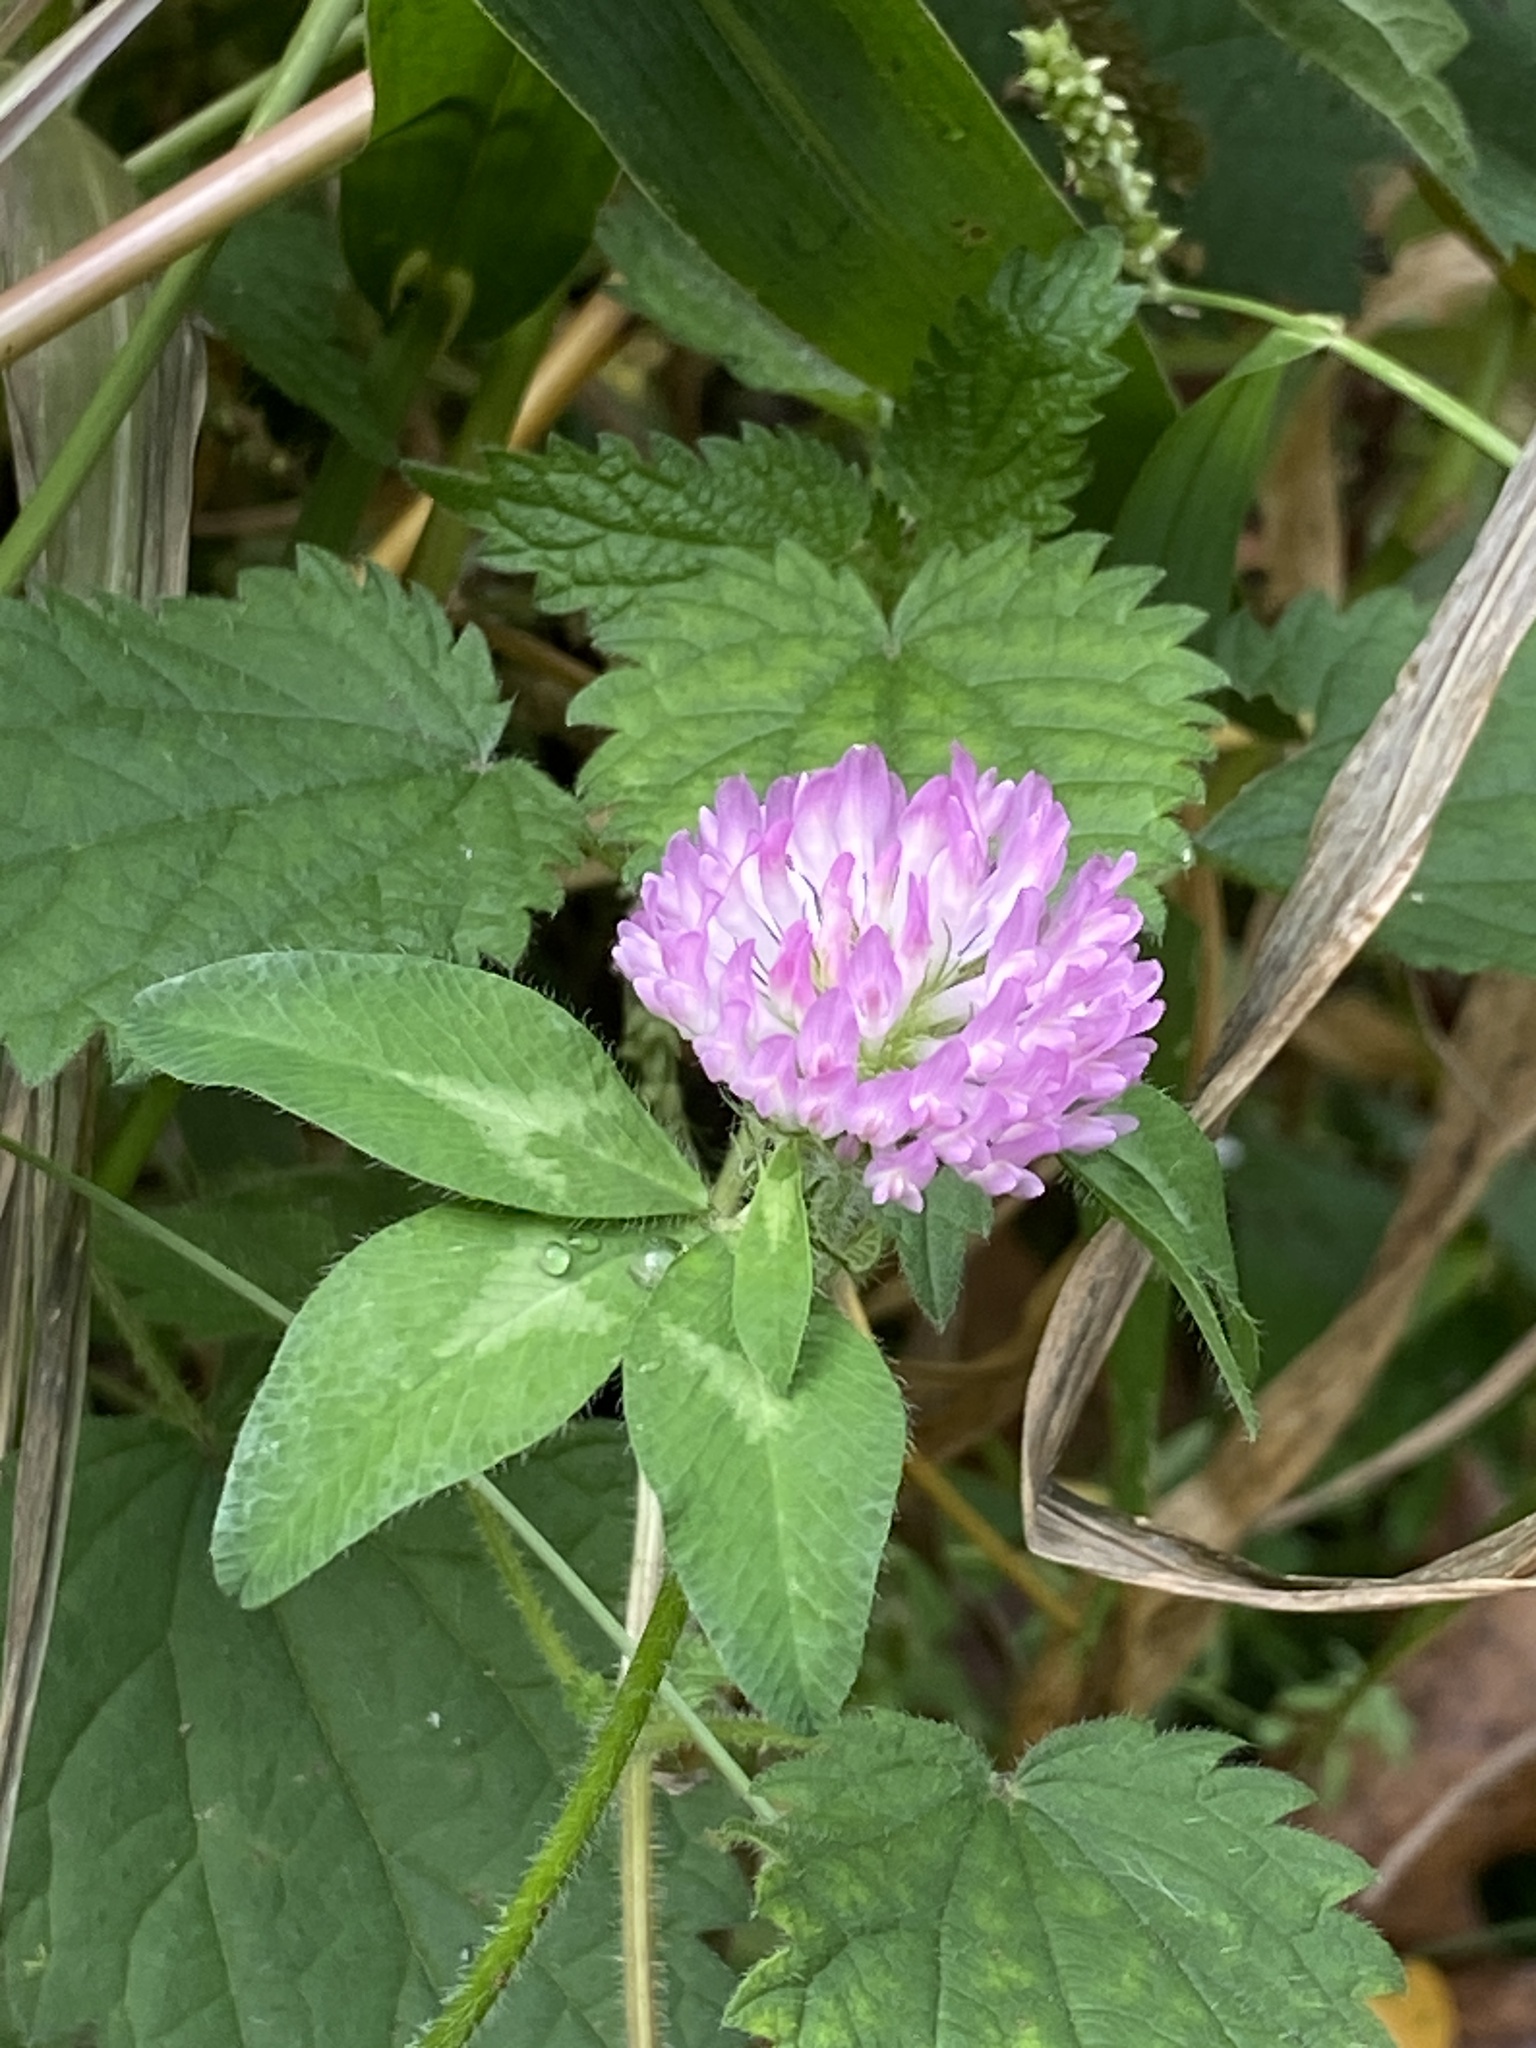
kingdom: Plantae
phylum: Tracheophyta
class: Magnoliopsida
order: Fabales
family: Fabaceae
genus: Trifolium
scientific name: Trifolium pratense
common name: Red clover
